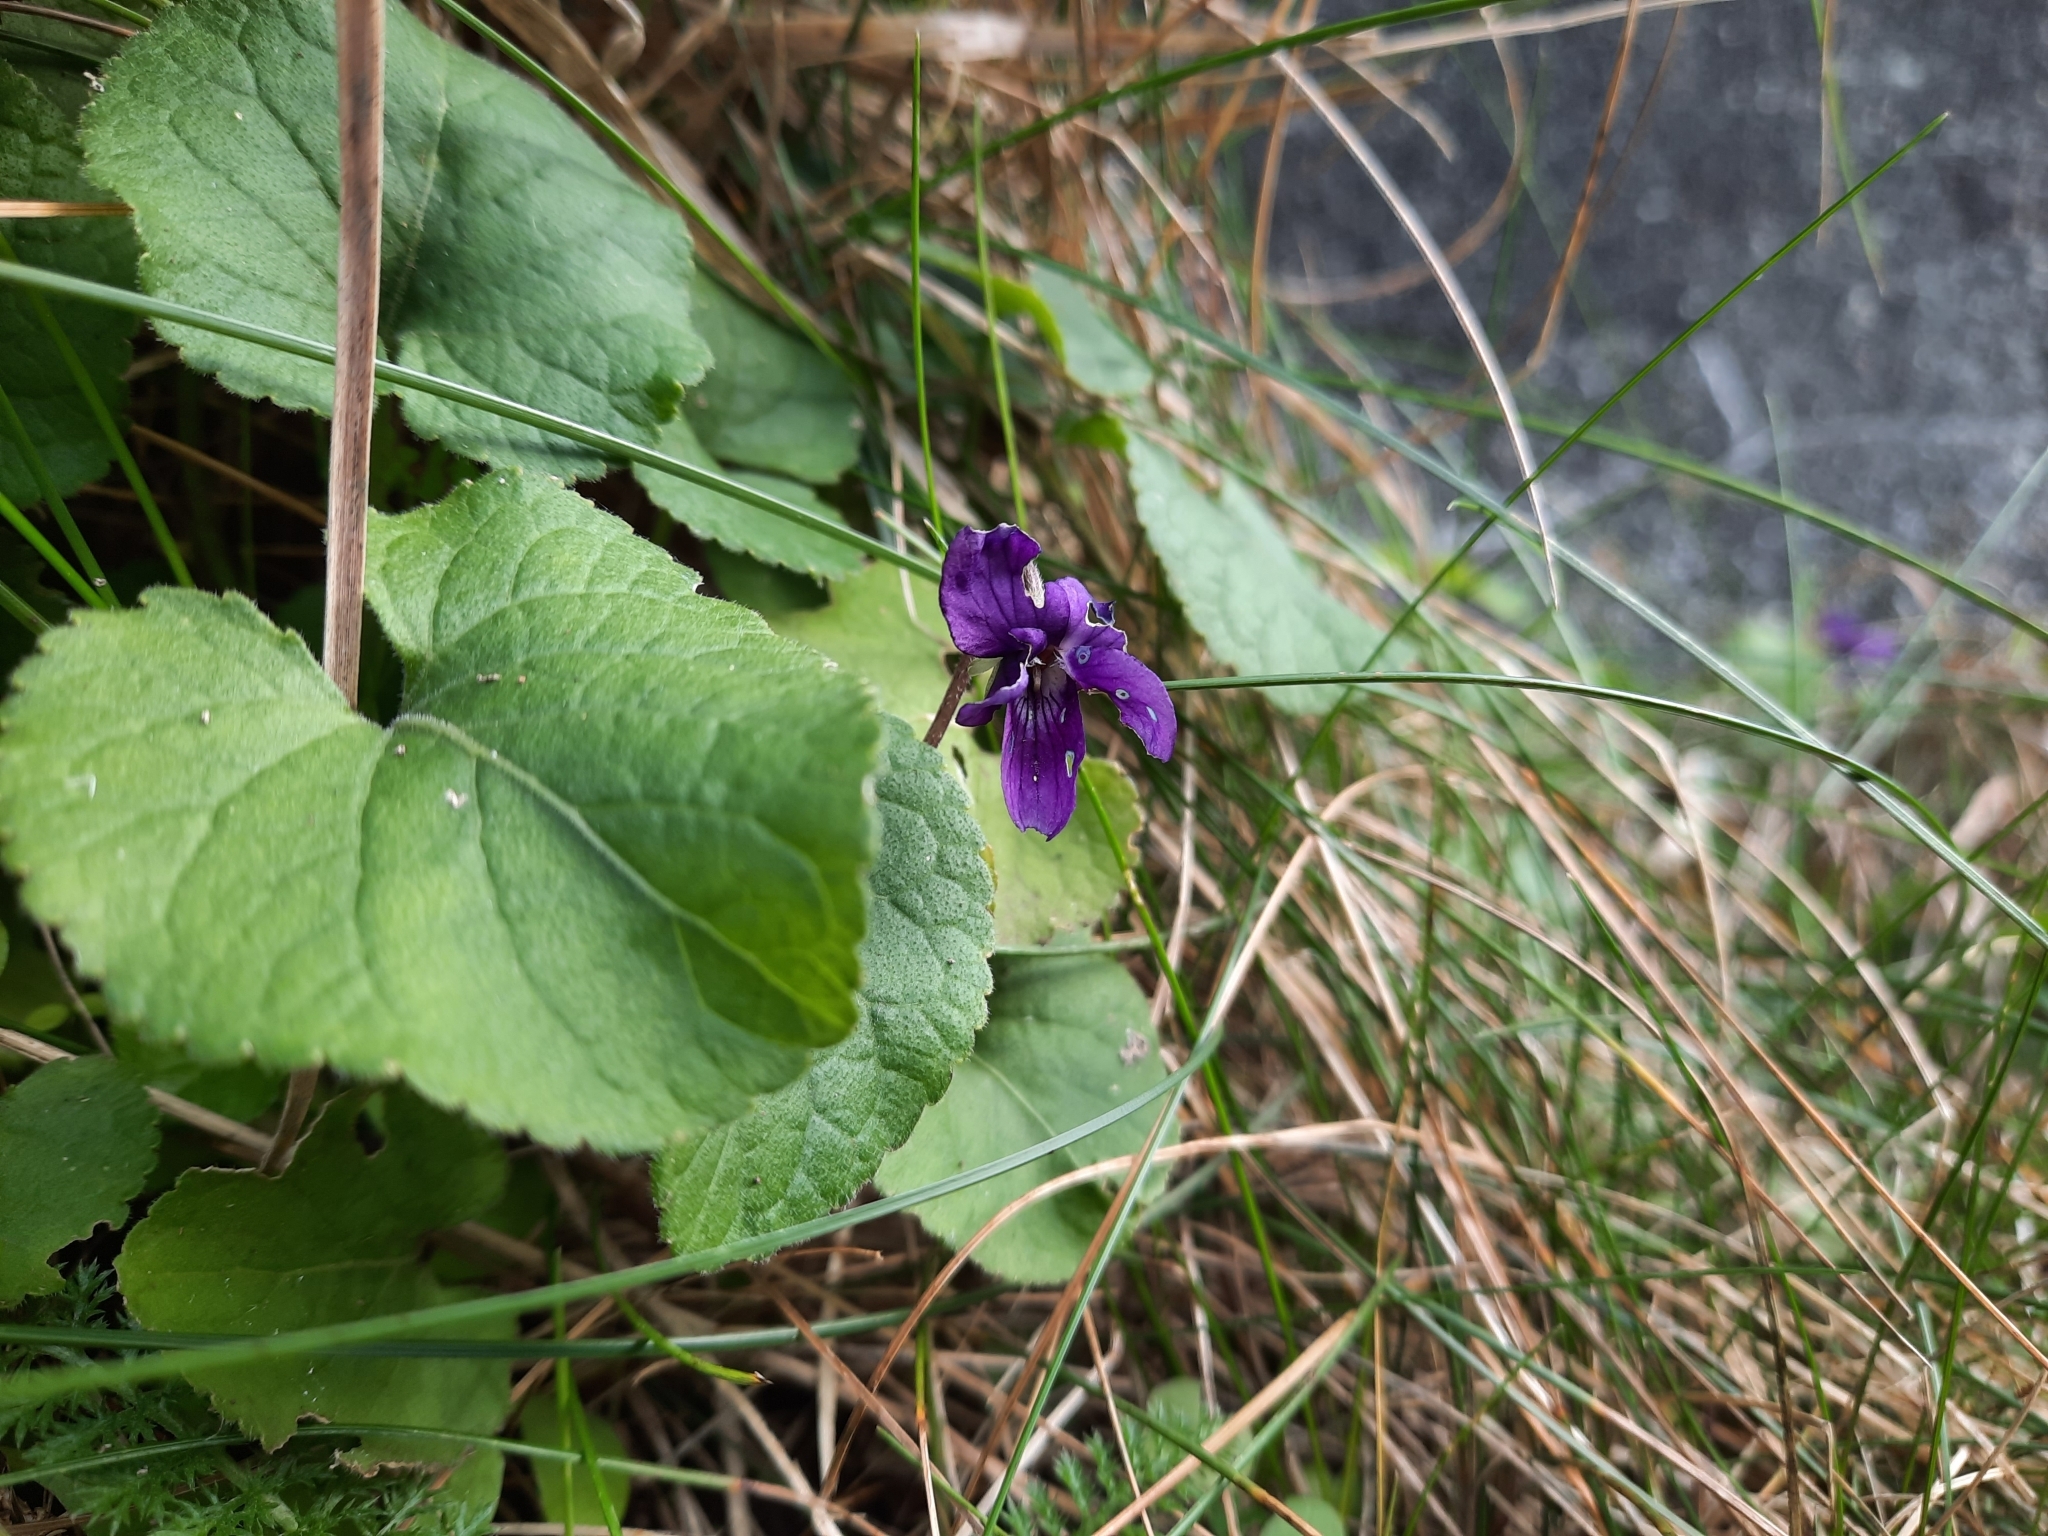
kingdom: Plantae
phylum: Tracheophyta
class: Magnoliopsida
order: Malpighiales
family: Violaceae
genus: Viola
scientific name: Viola odorata
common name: Sweet violet
